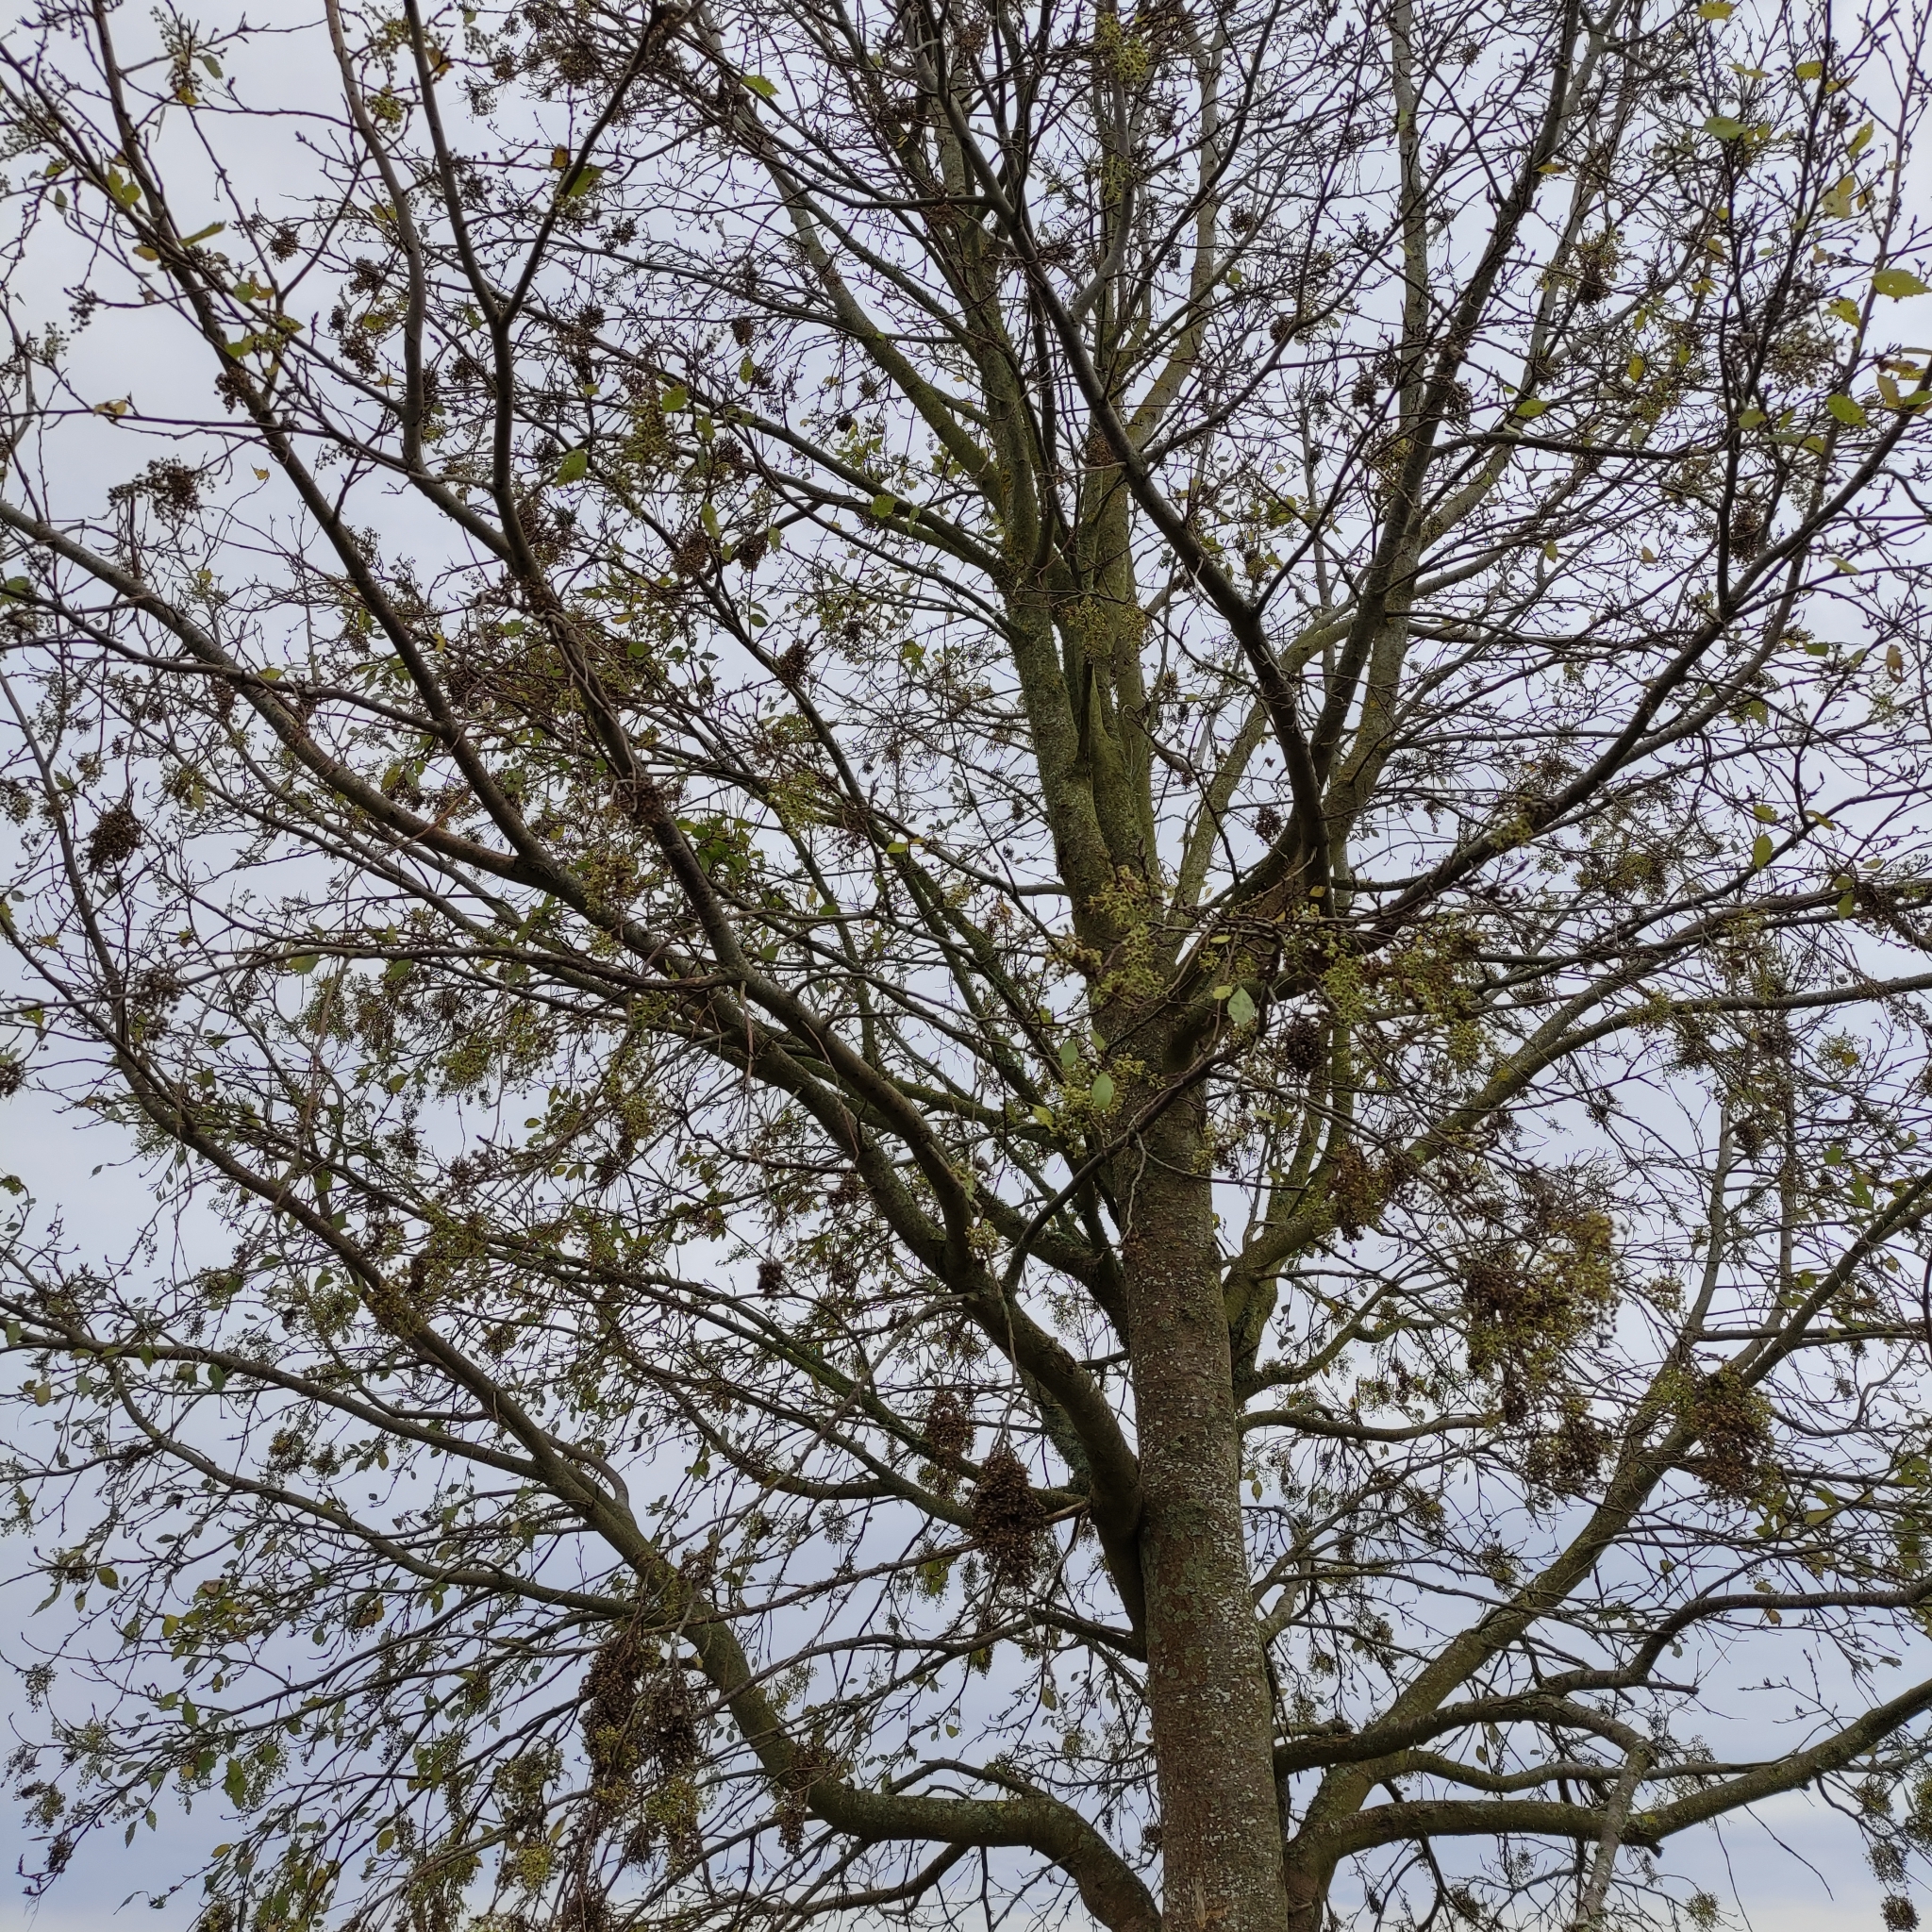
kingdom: Plantae
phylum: Tracheophyta
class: Magnoliopsida
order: Malvales
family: Malvaceae
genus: Plagianthus
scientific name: Plagianthus regius
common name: Manatu
